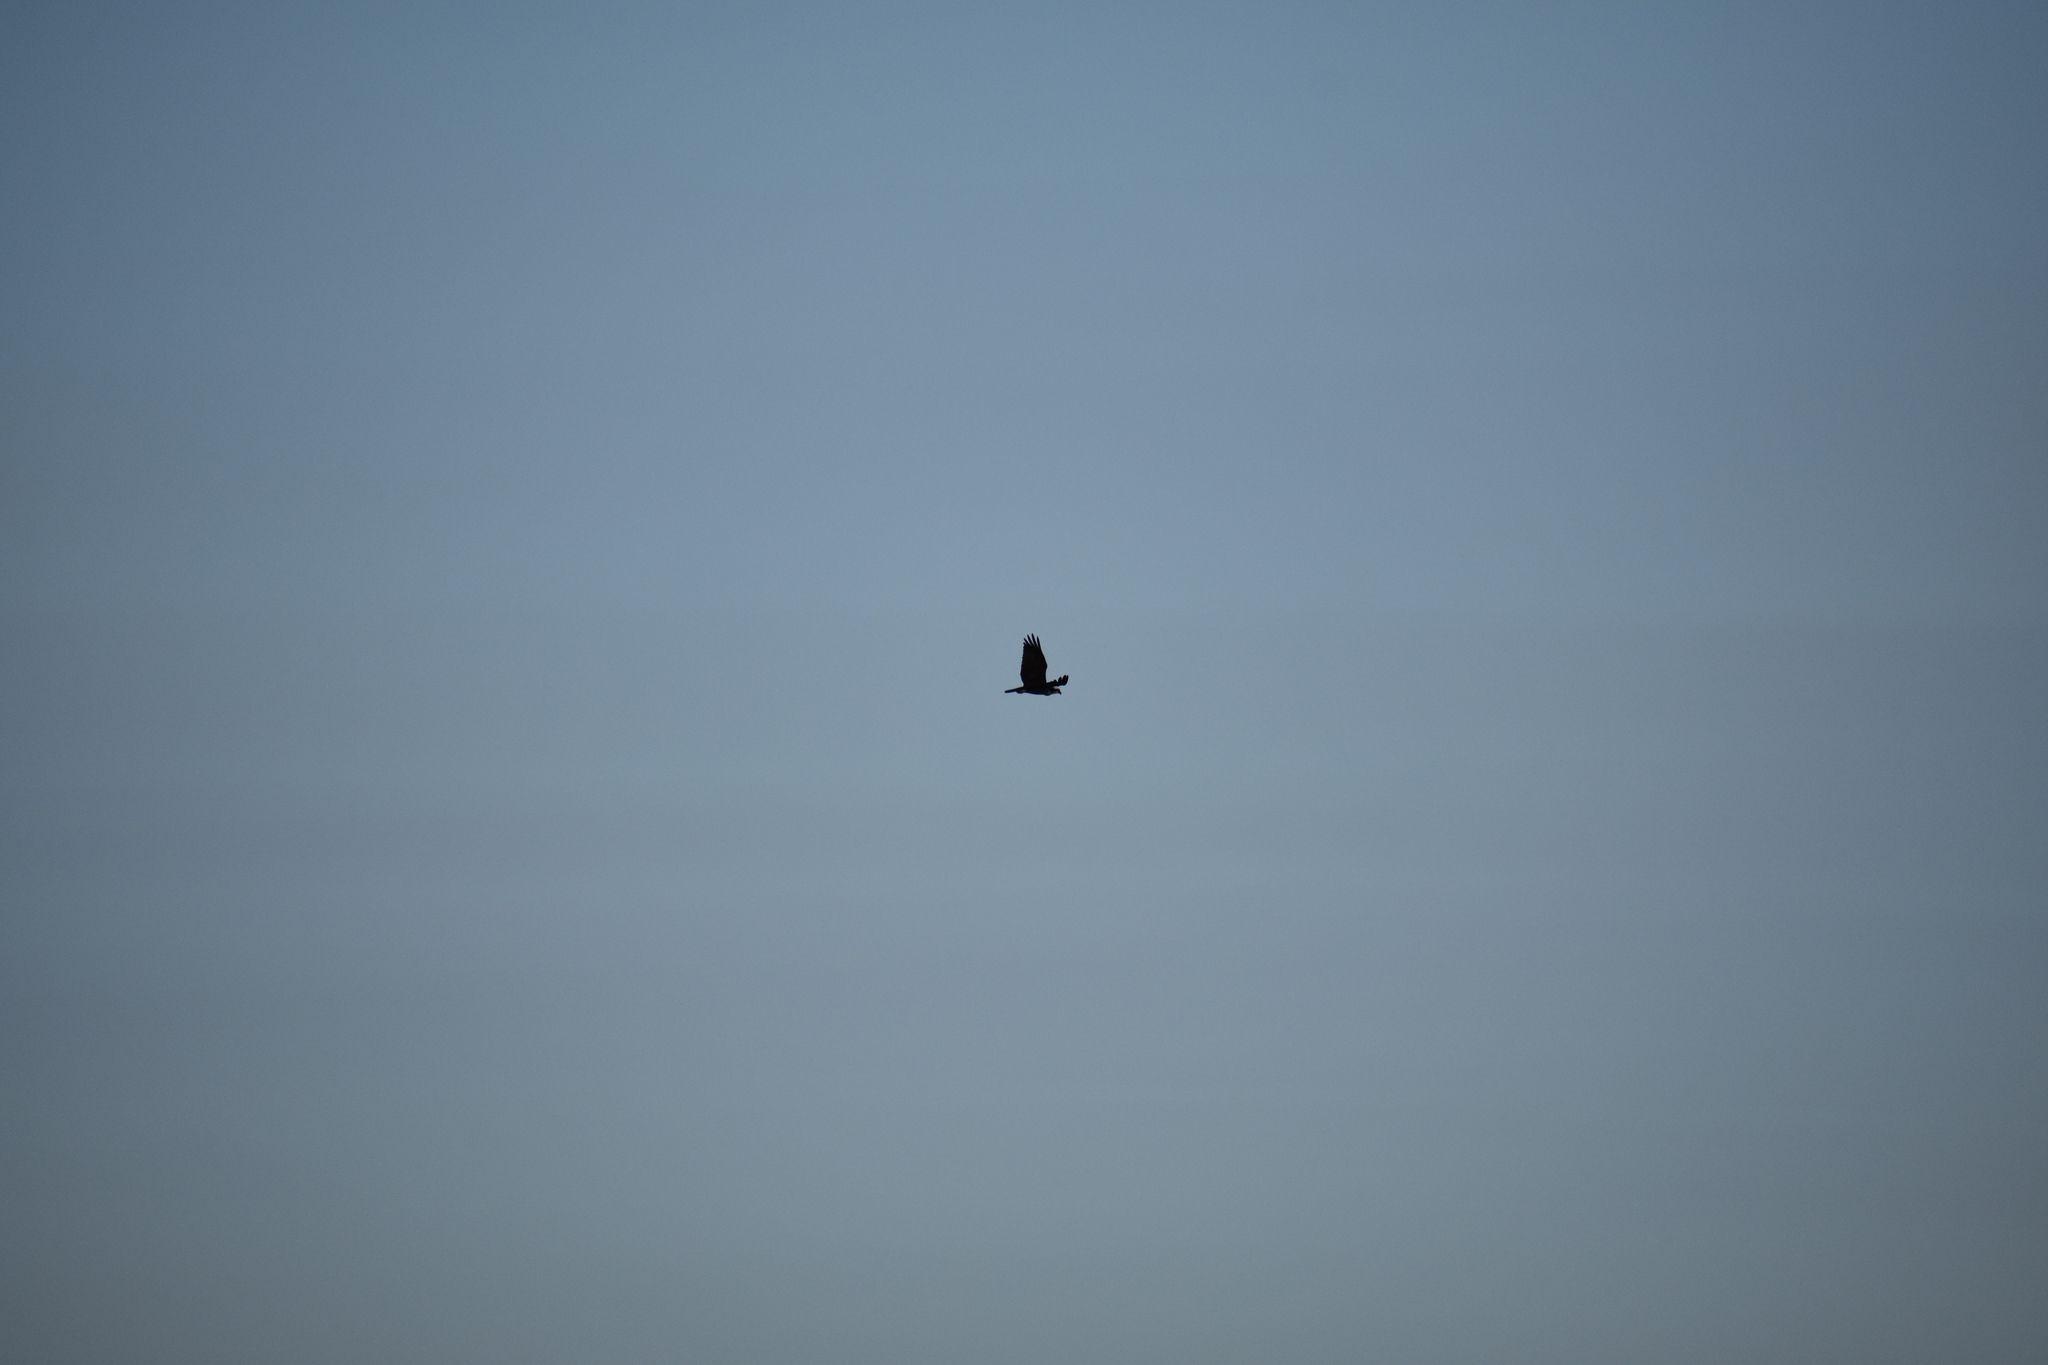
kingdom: Animalia
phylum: Chordata
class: Aves
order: Accipitriformes
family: Pandionidae
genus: Pandion
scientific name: Pandion haliaetus
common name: Osprey
